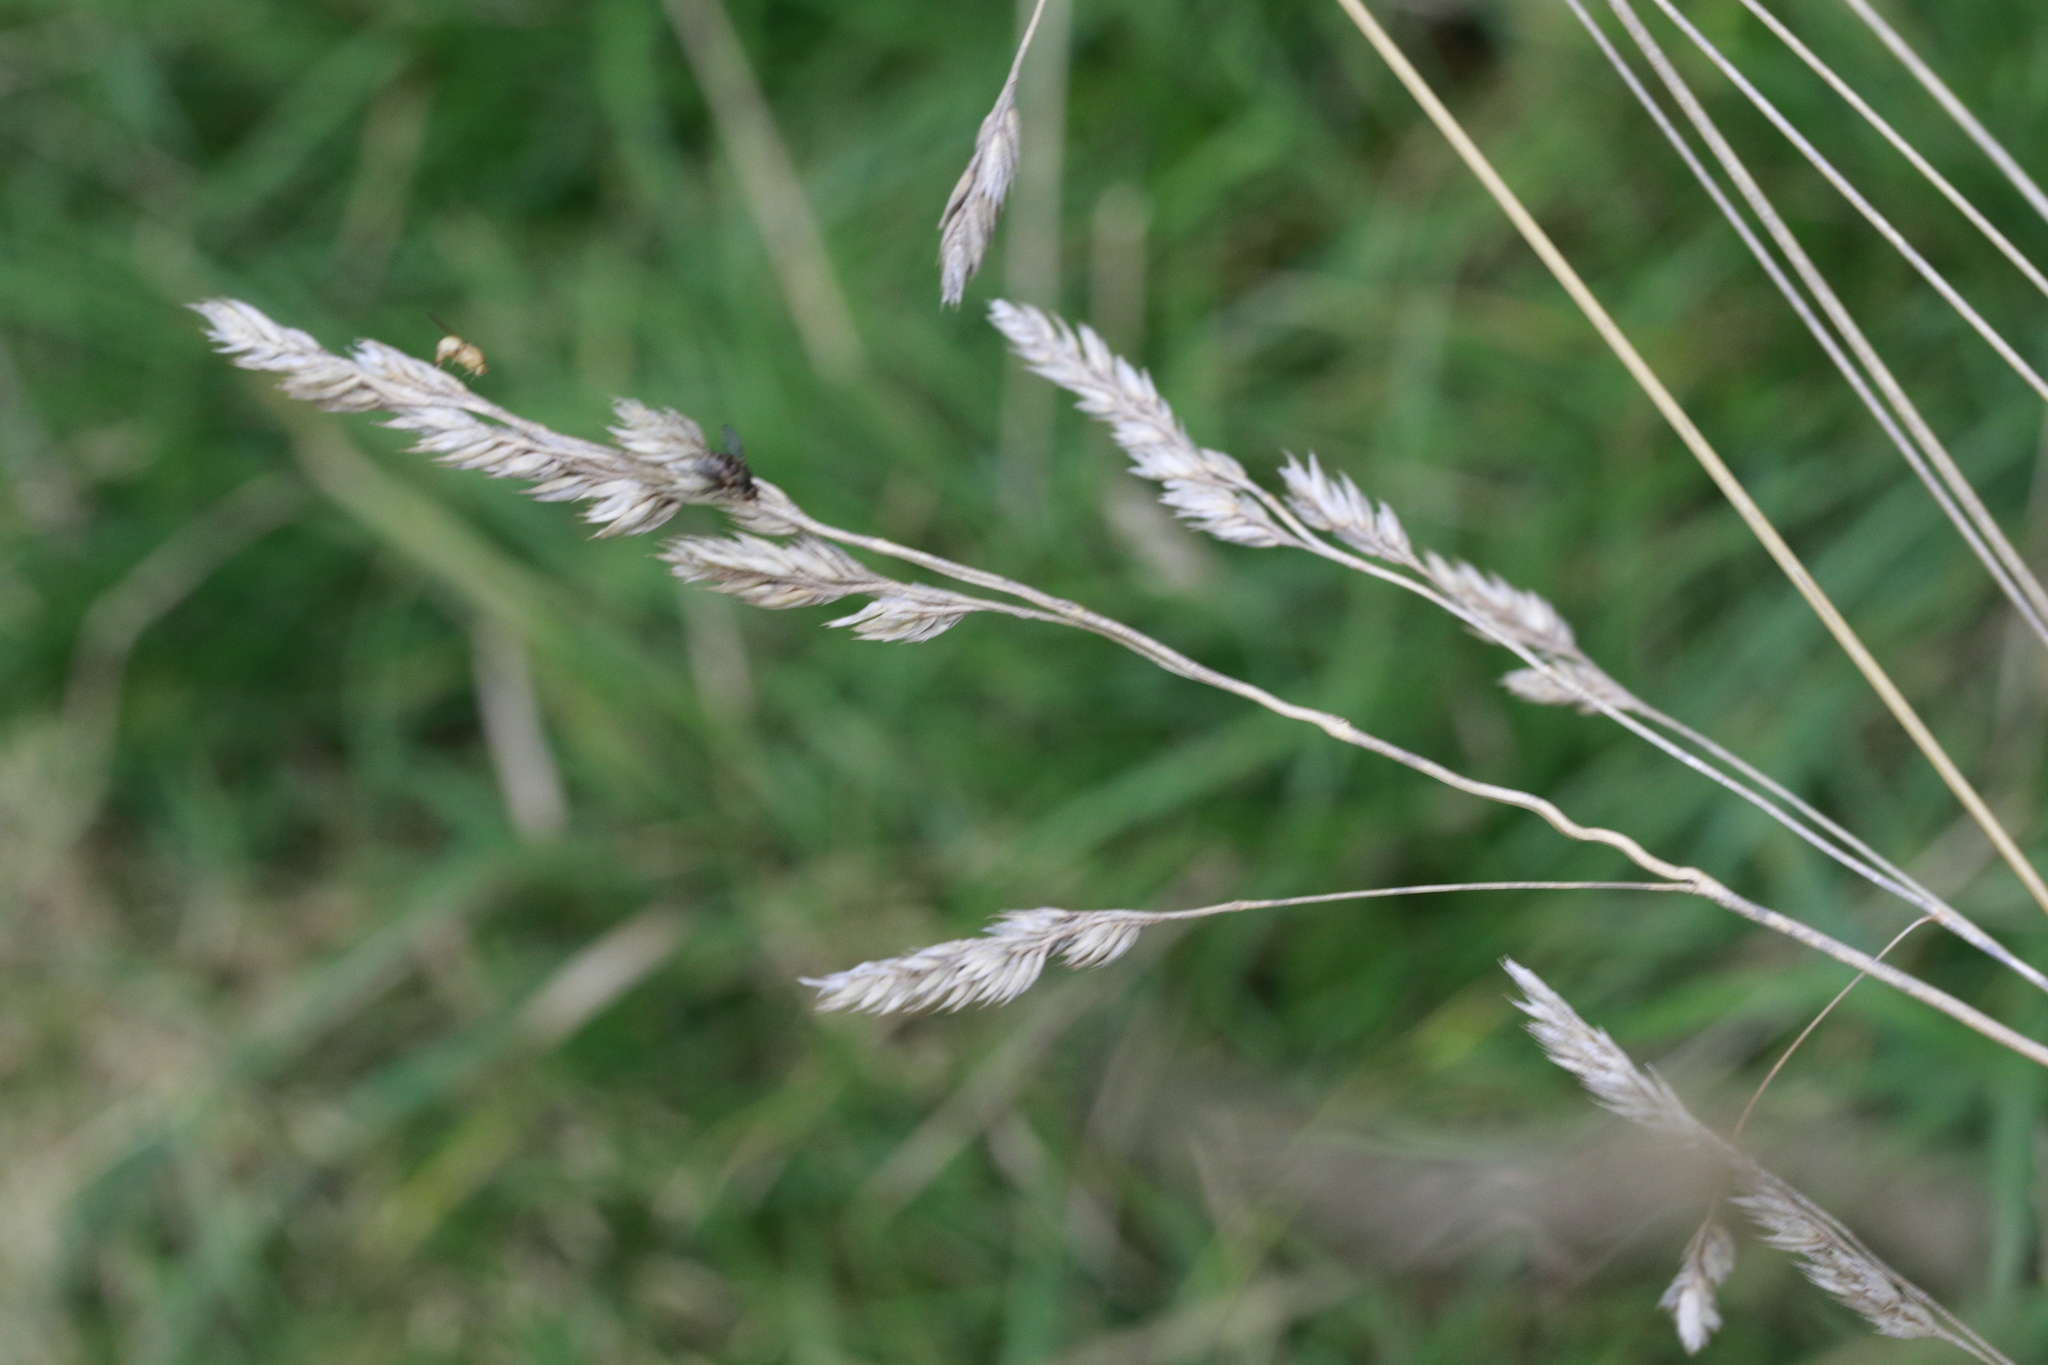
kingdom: Plantae
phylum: Tracheophyta
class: Liliopsida
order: Poales
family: Poaceae
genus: Dactylis
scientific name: Dactylis glomerata
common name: Orchardgrass
